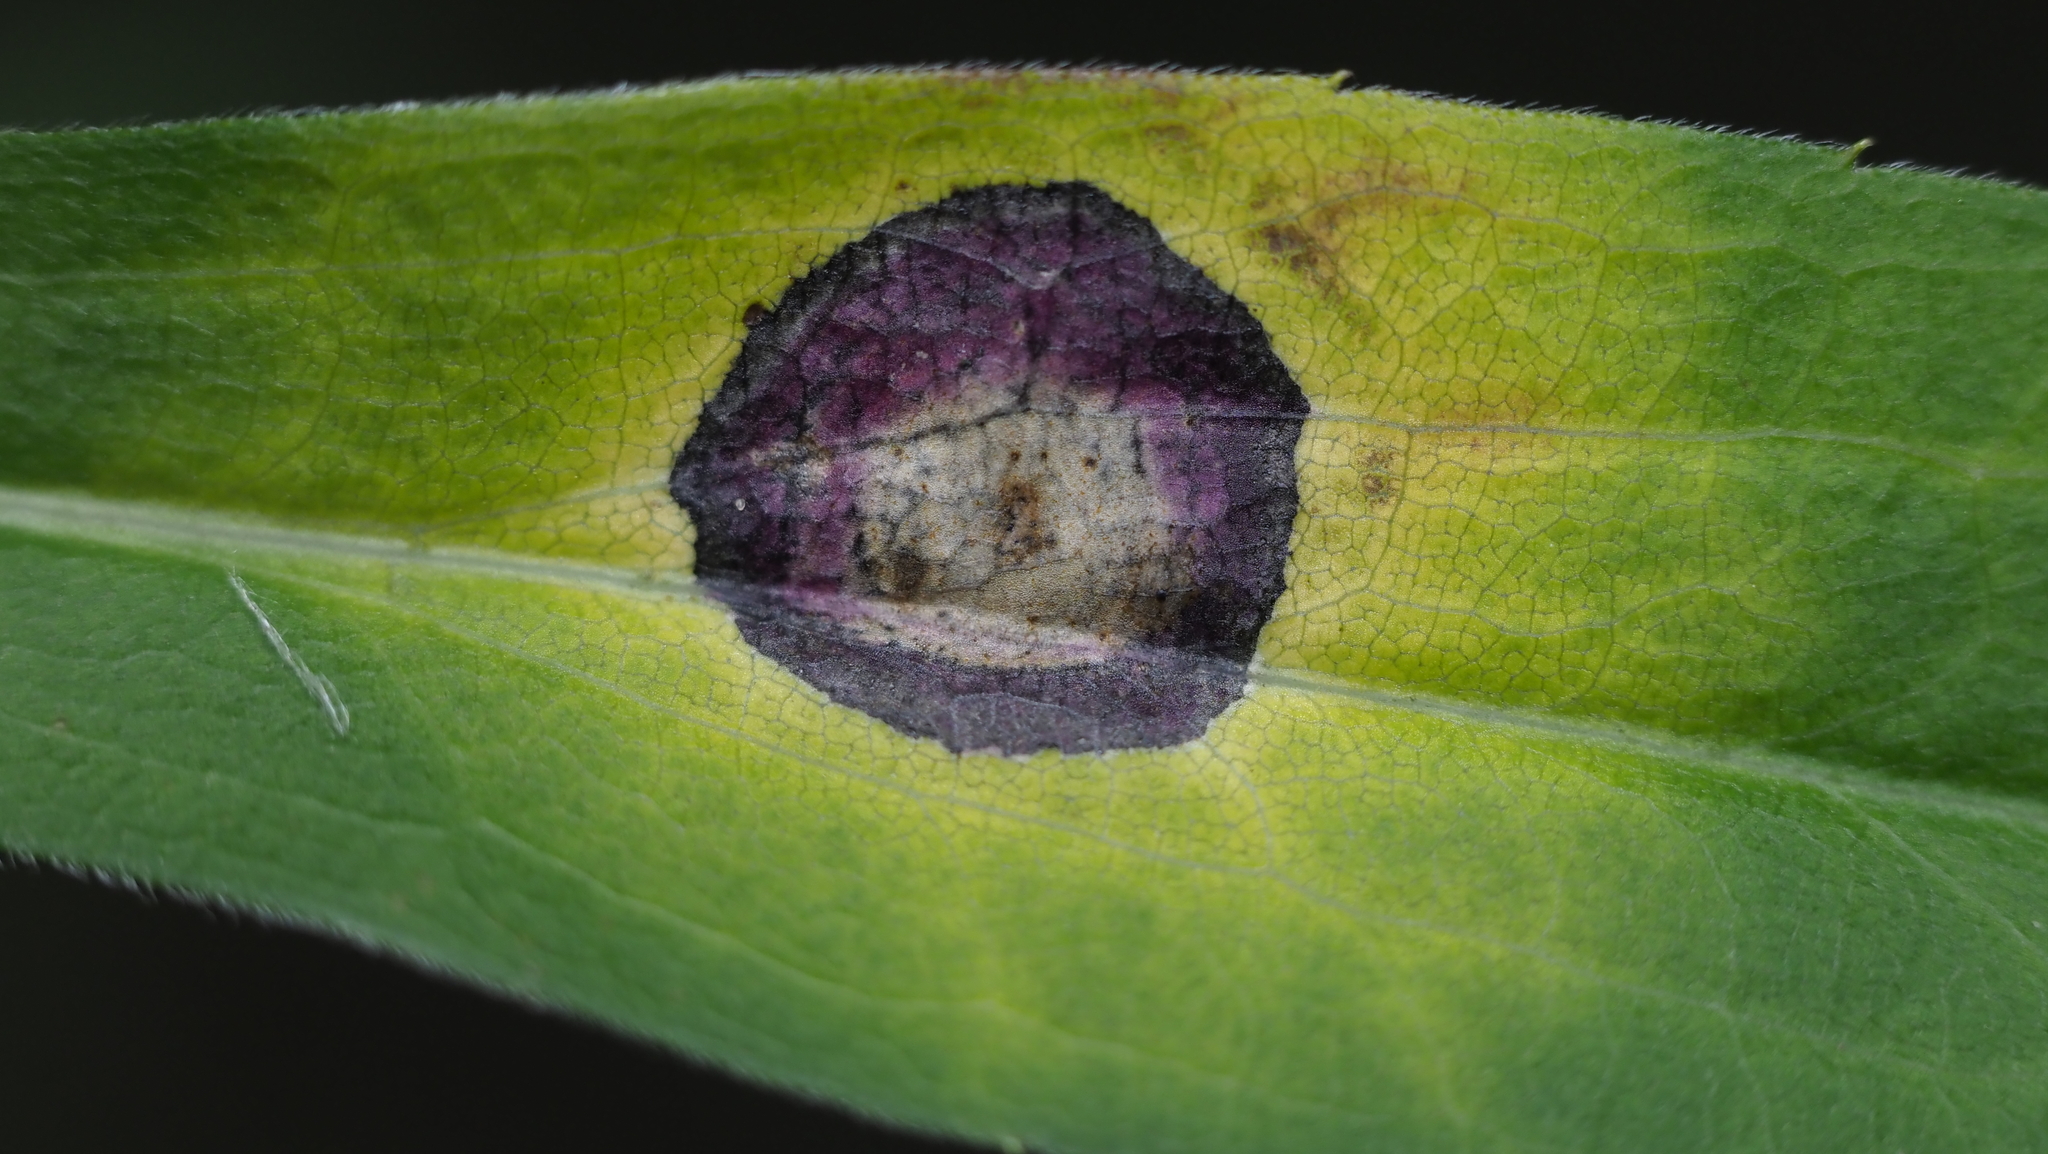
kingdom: Animalia
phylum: Arthropoda
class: Insecta
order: Diptera
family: Cecidomyiidae
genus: Asteromyia
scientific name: Asteromyia carbonifera
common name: Carbonifera goldenrod gall midge
